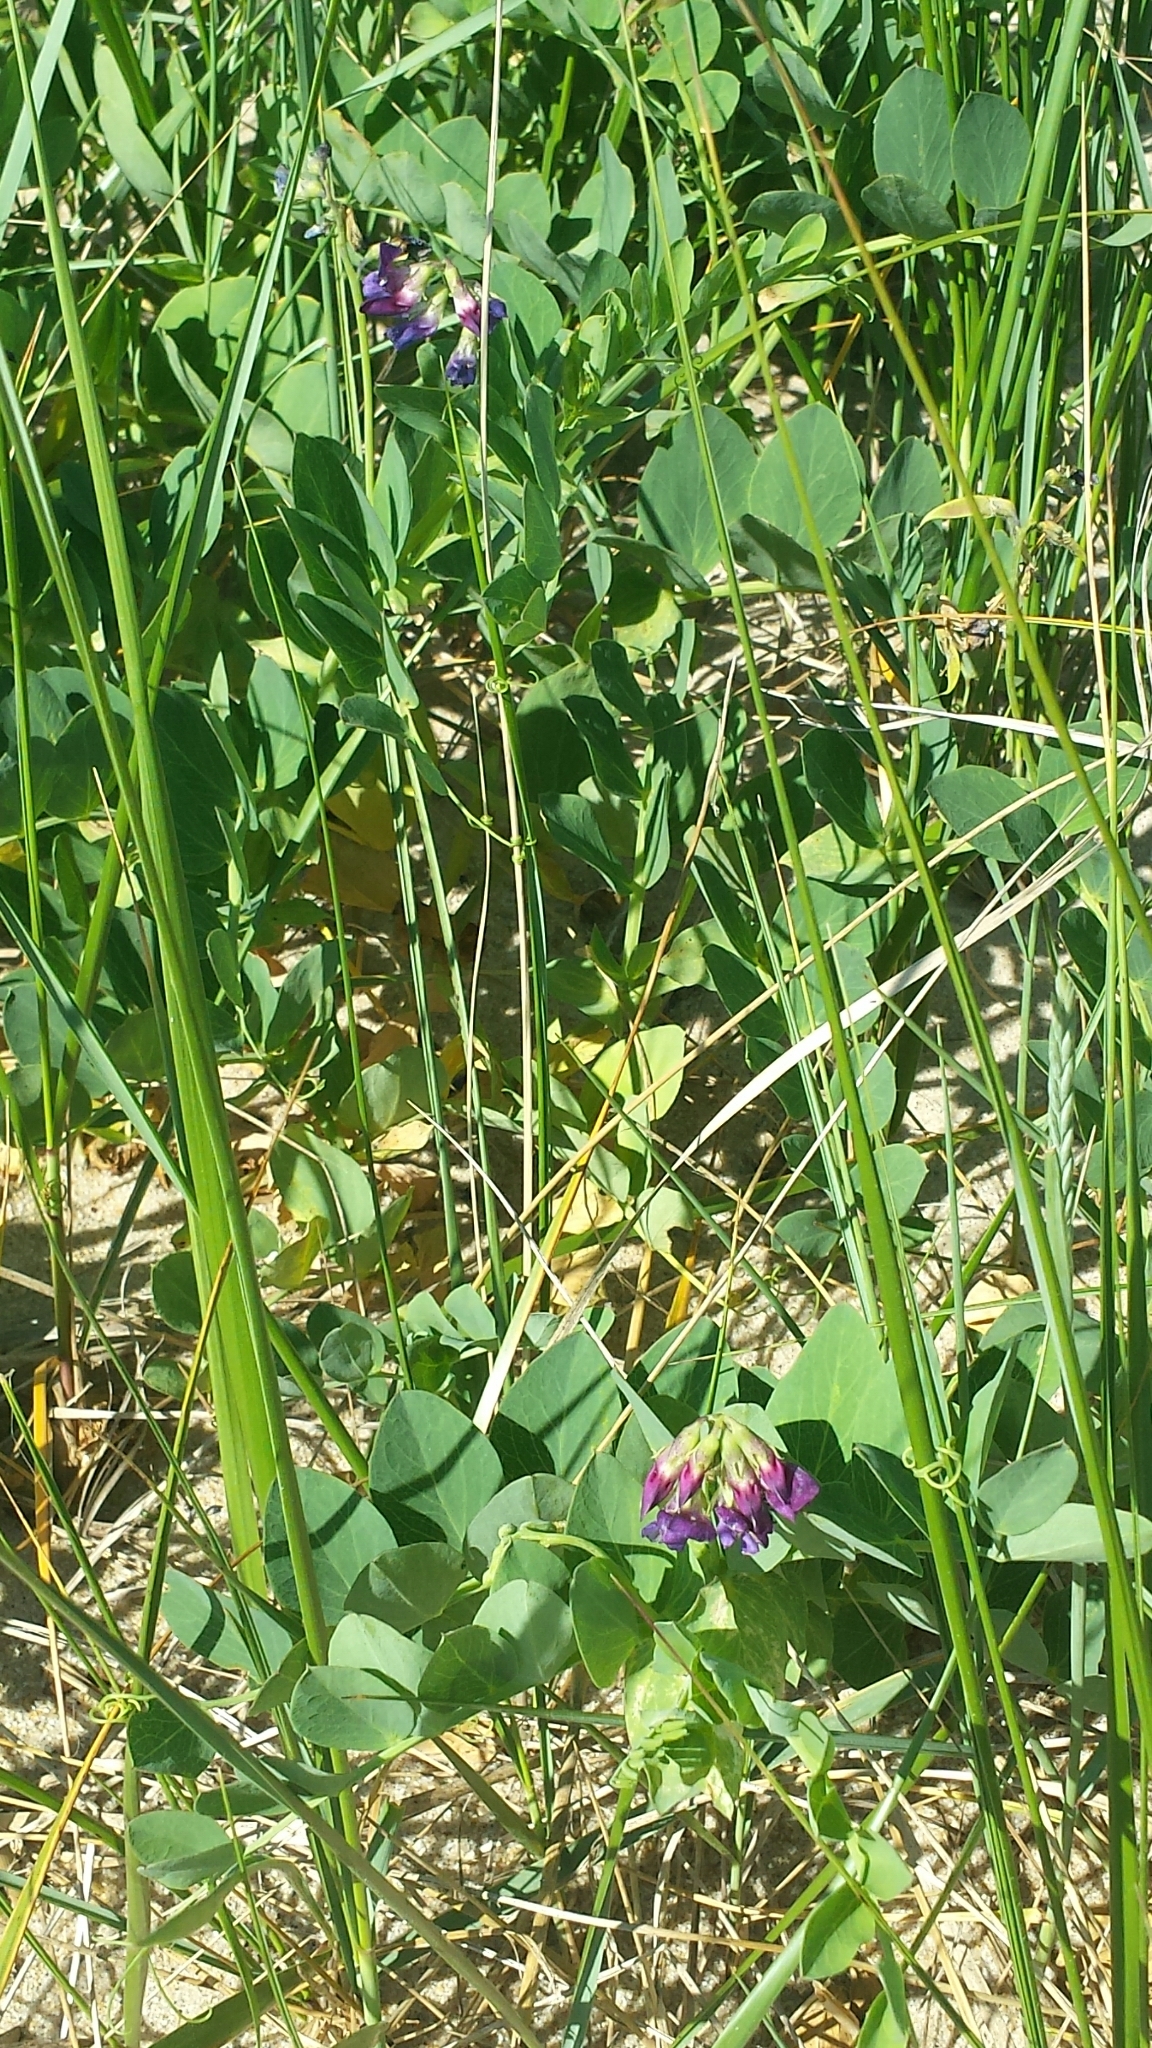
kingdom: Plantae
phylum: Tracheophyta
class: Magnoliopsida
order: Fabales
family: Fabaceae
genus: Lathyrus
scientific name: Lathyrus japonicus
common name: Sea pea
